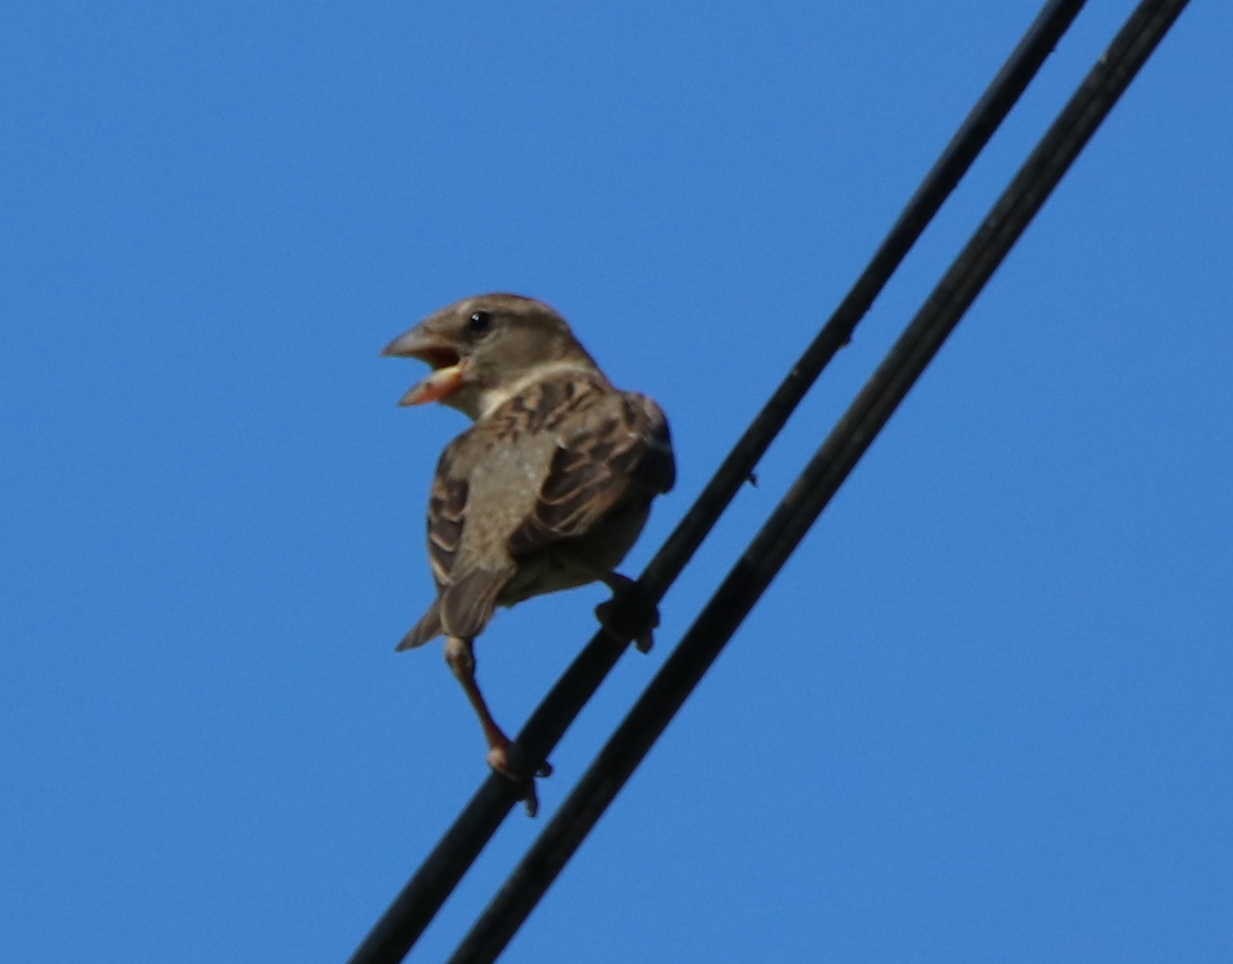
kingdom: Animalia
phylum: Chordata
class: Aves
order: Passeriformes
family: Passeridae
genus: Passer
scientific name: Passer domesticus
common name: House sparrow
